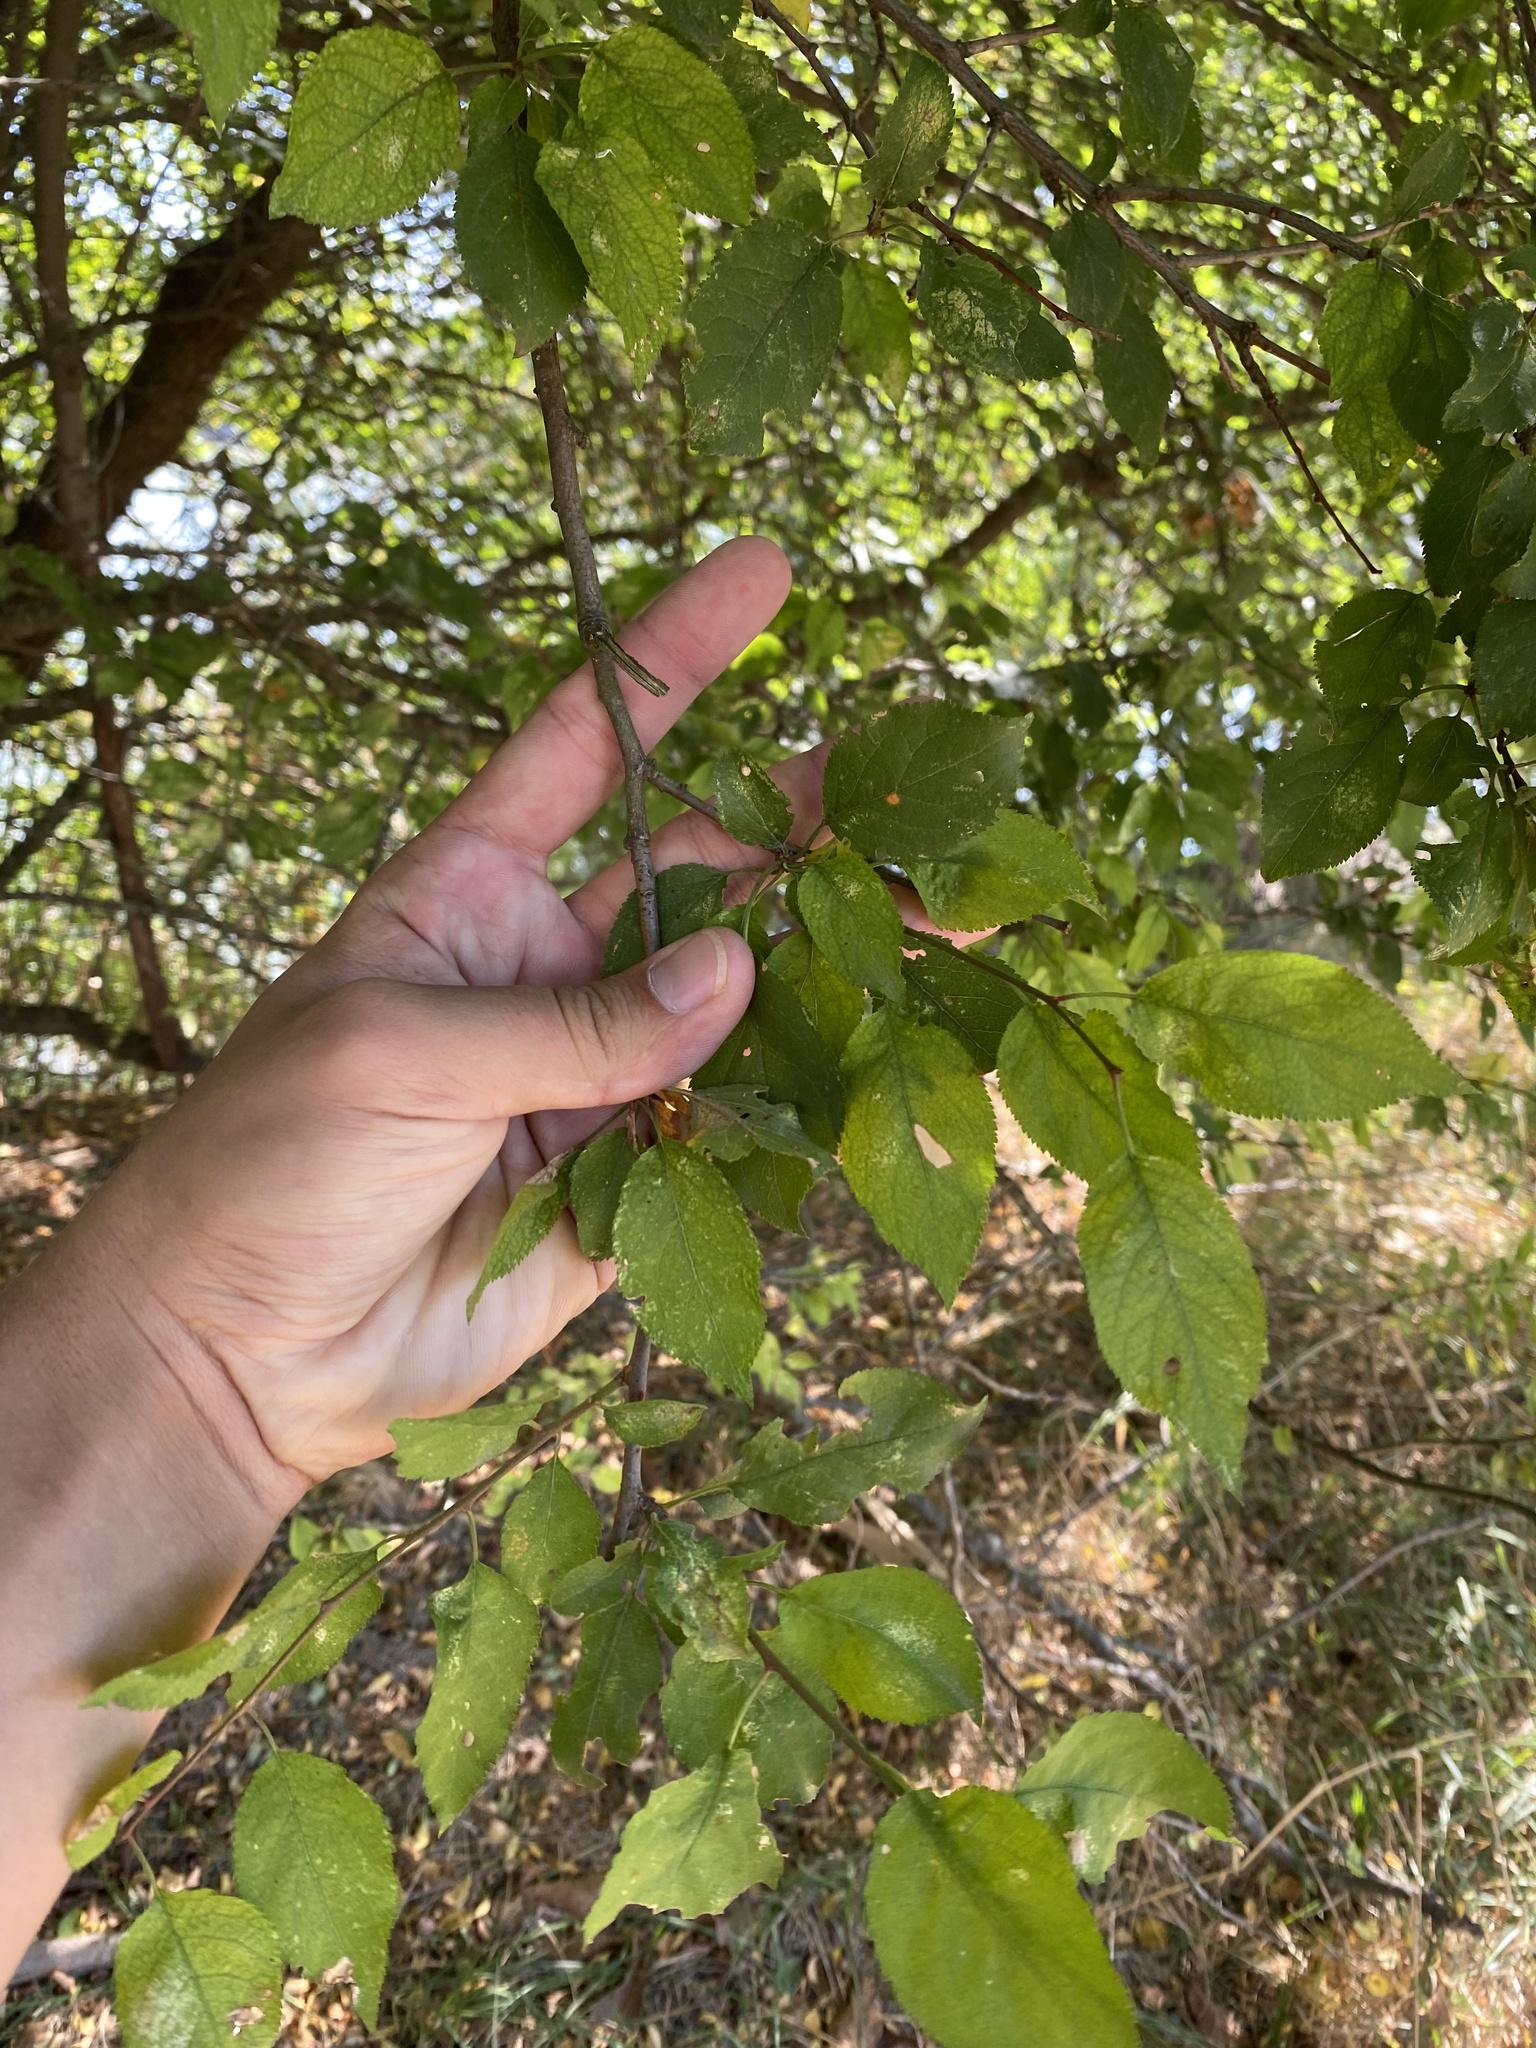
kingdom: Plantae
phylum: Tracheophyta
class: Magnoliopsida
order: Rosales
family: Rosaceae
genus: Prunus
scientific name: Prunus cerasifera
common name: Cherry plum
